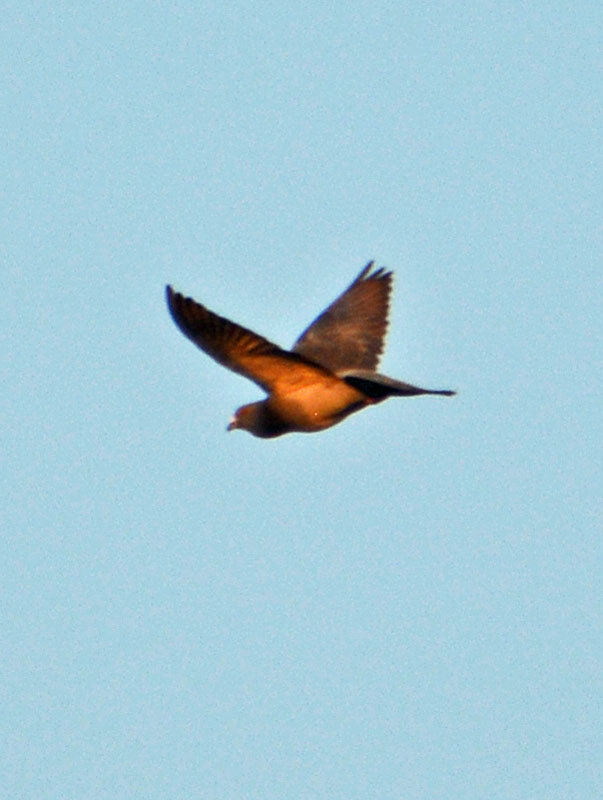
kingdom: Animalia
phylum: Chordata
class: Aves
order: Columbiformes
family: Columbidae
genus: Columba
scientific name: Columba livia
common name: Rock pigeon
